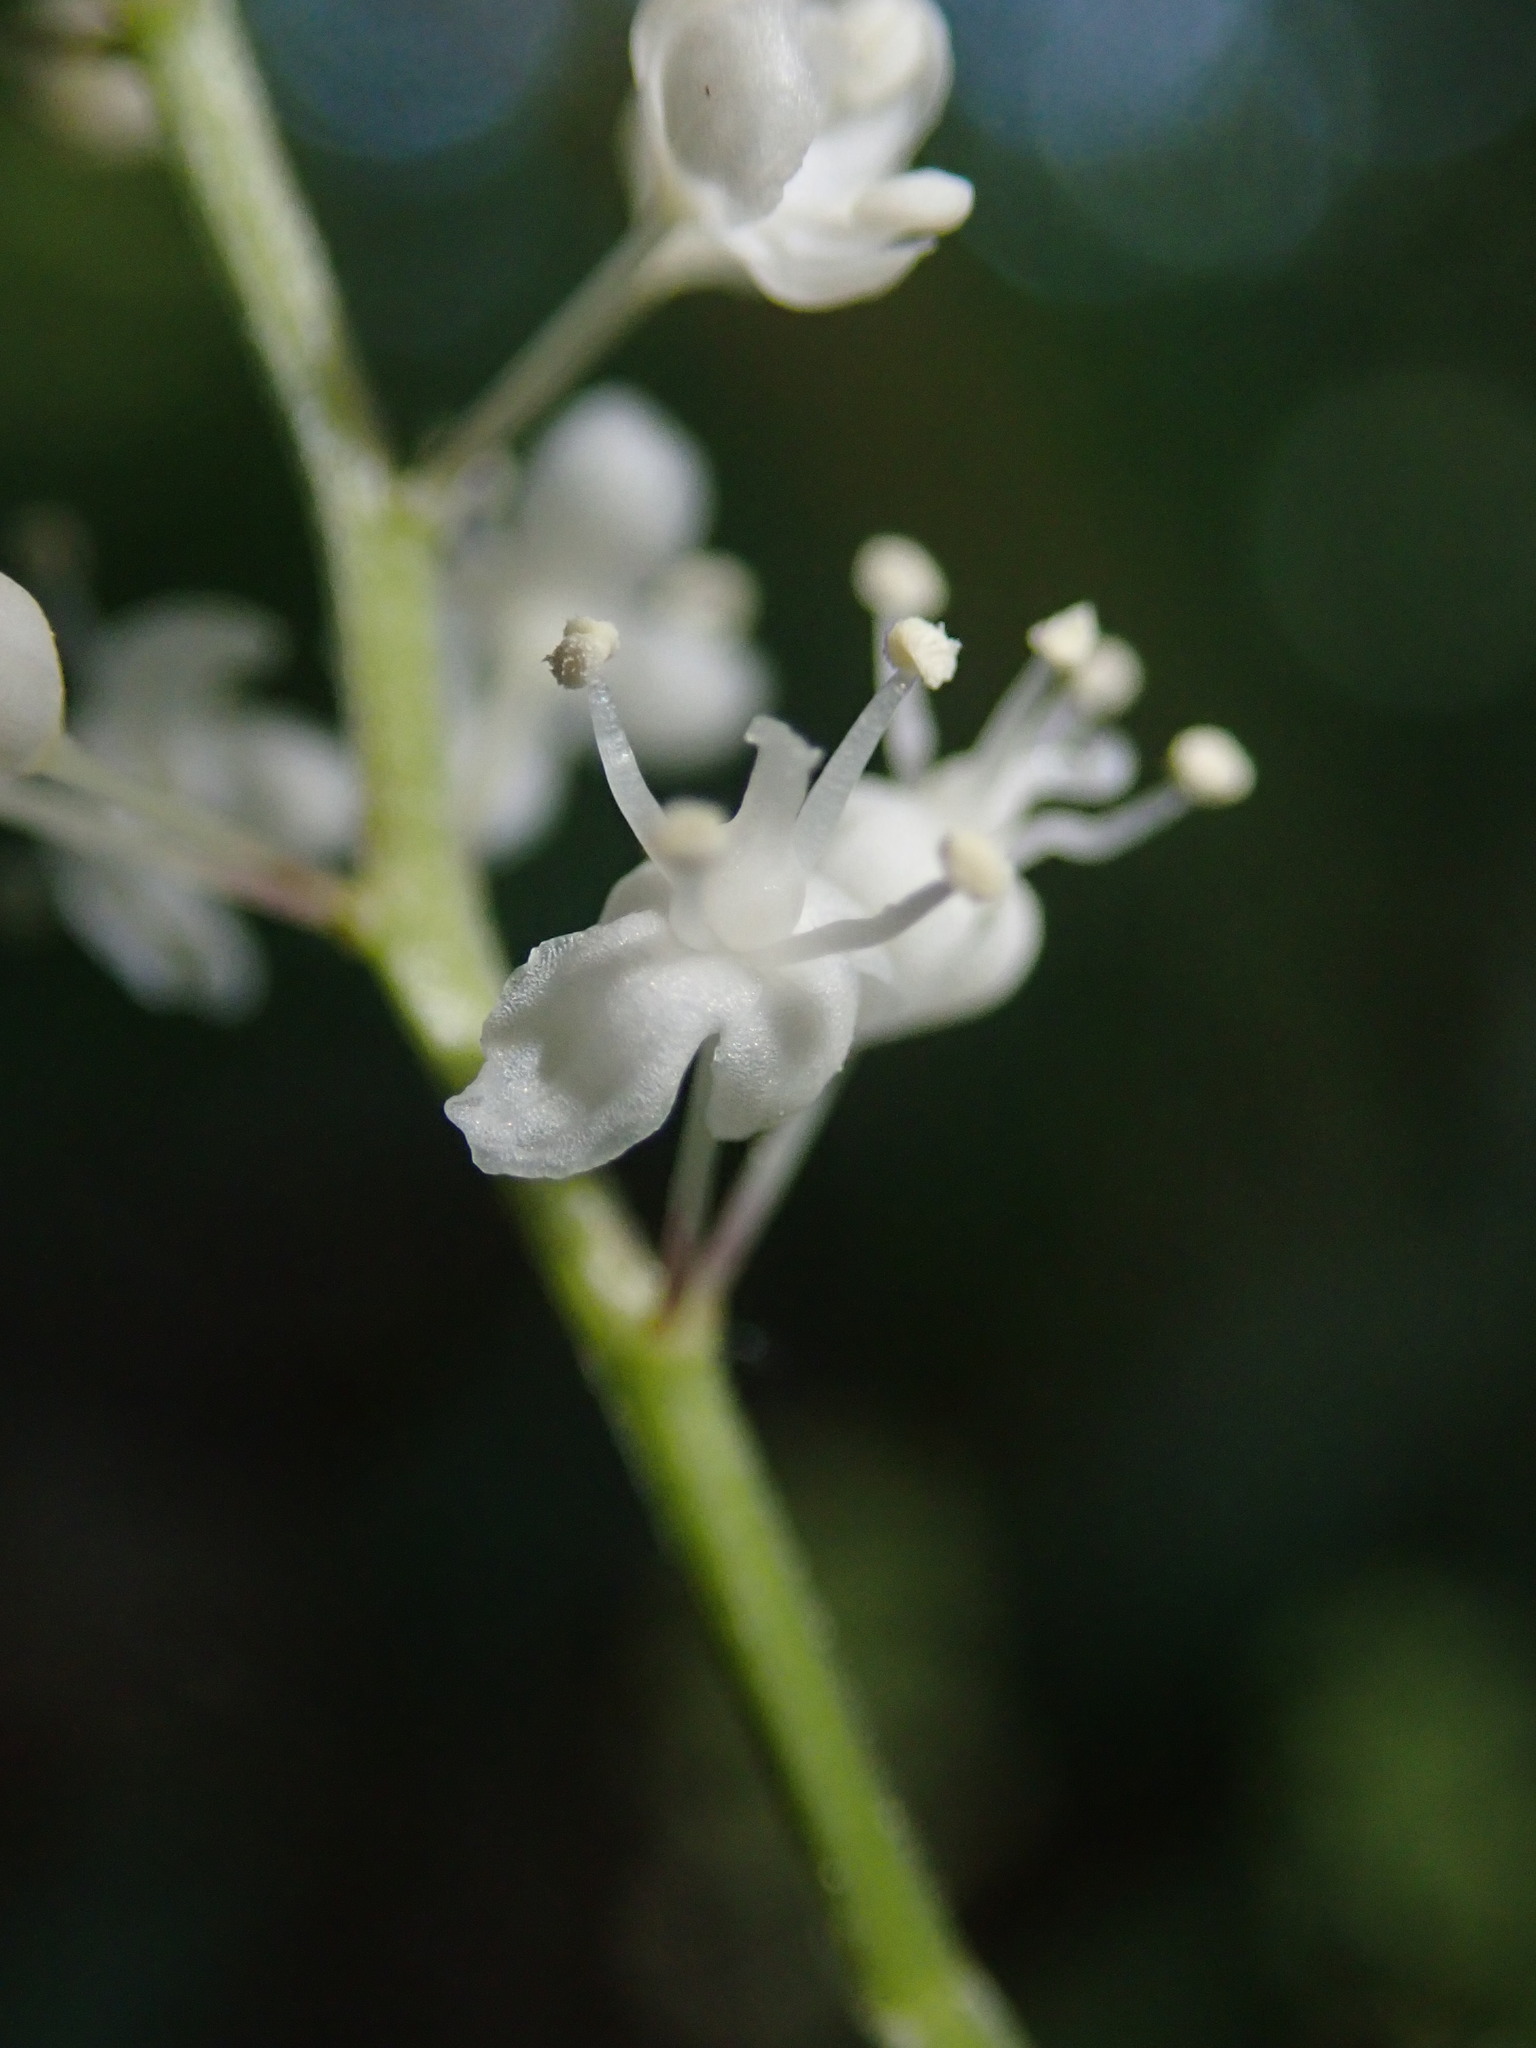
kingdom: Plantae
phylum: Tracheophyta
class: Liliopsida
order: Asparagales
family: Asparagaceae
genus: Maianthemum
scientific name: Maianthemum bifolium
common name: May lily
